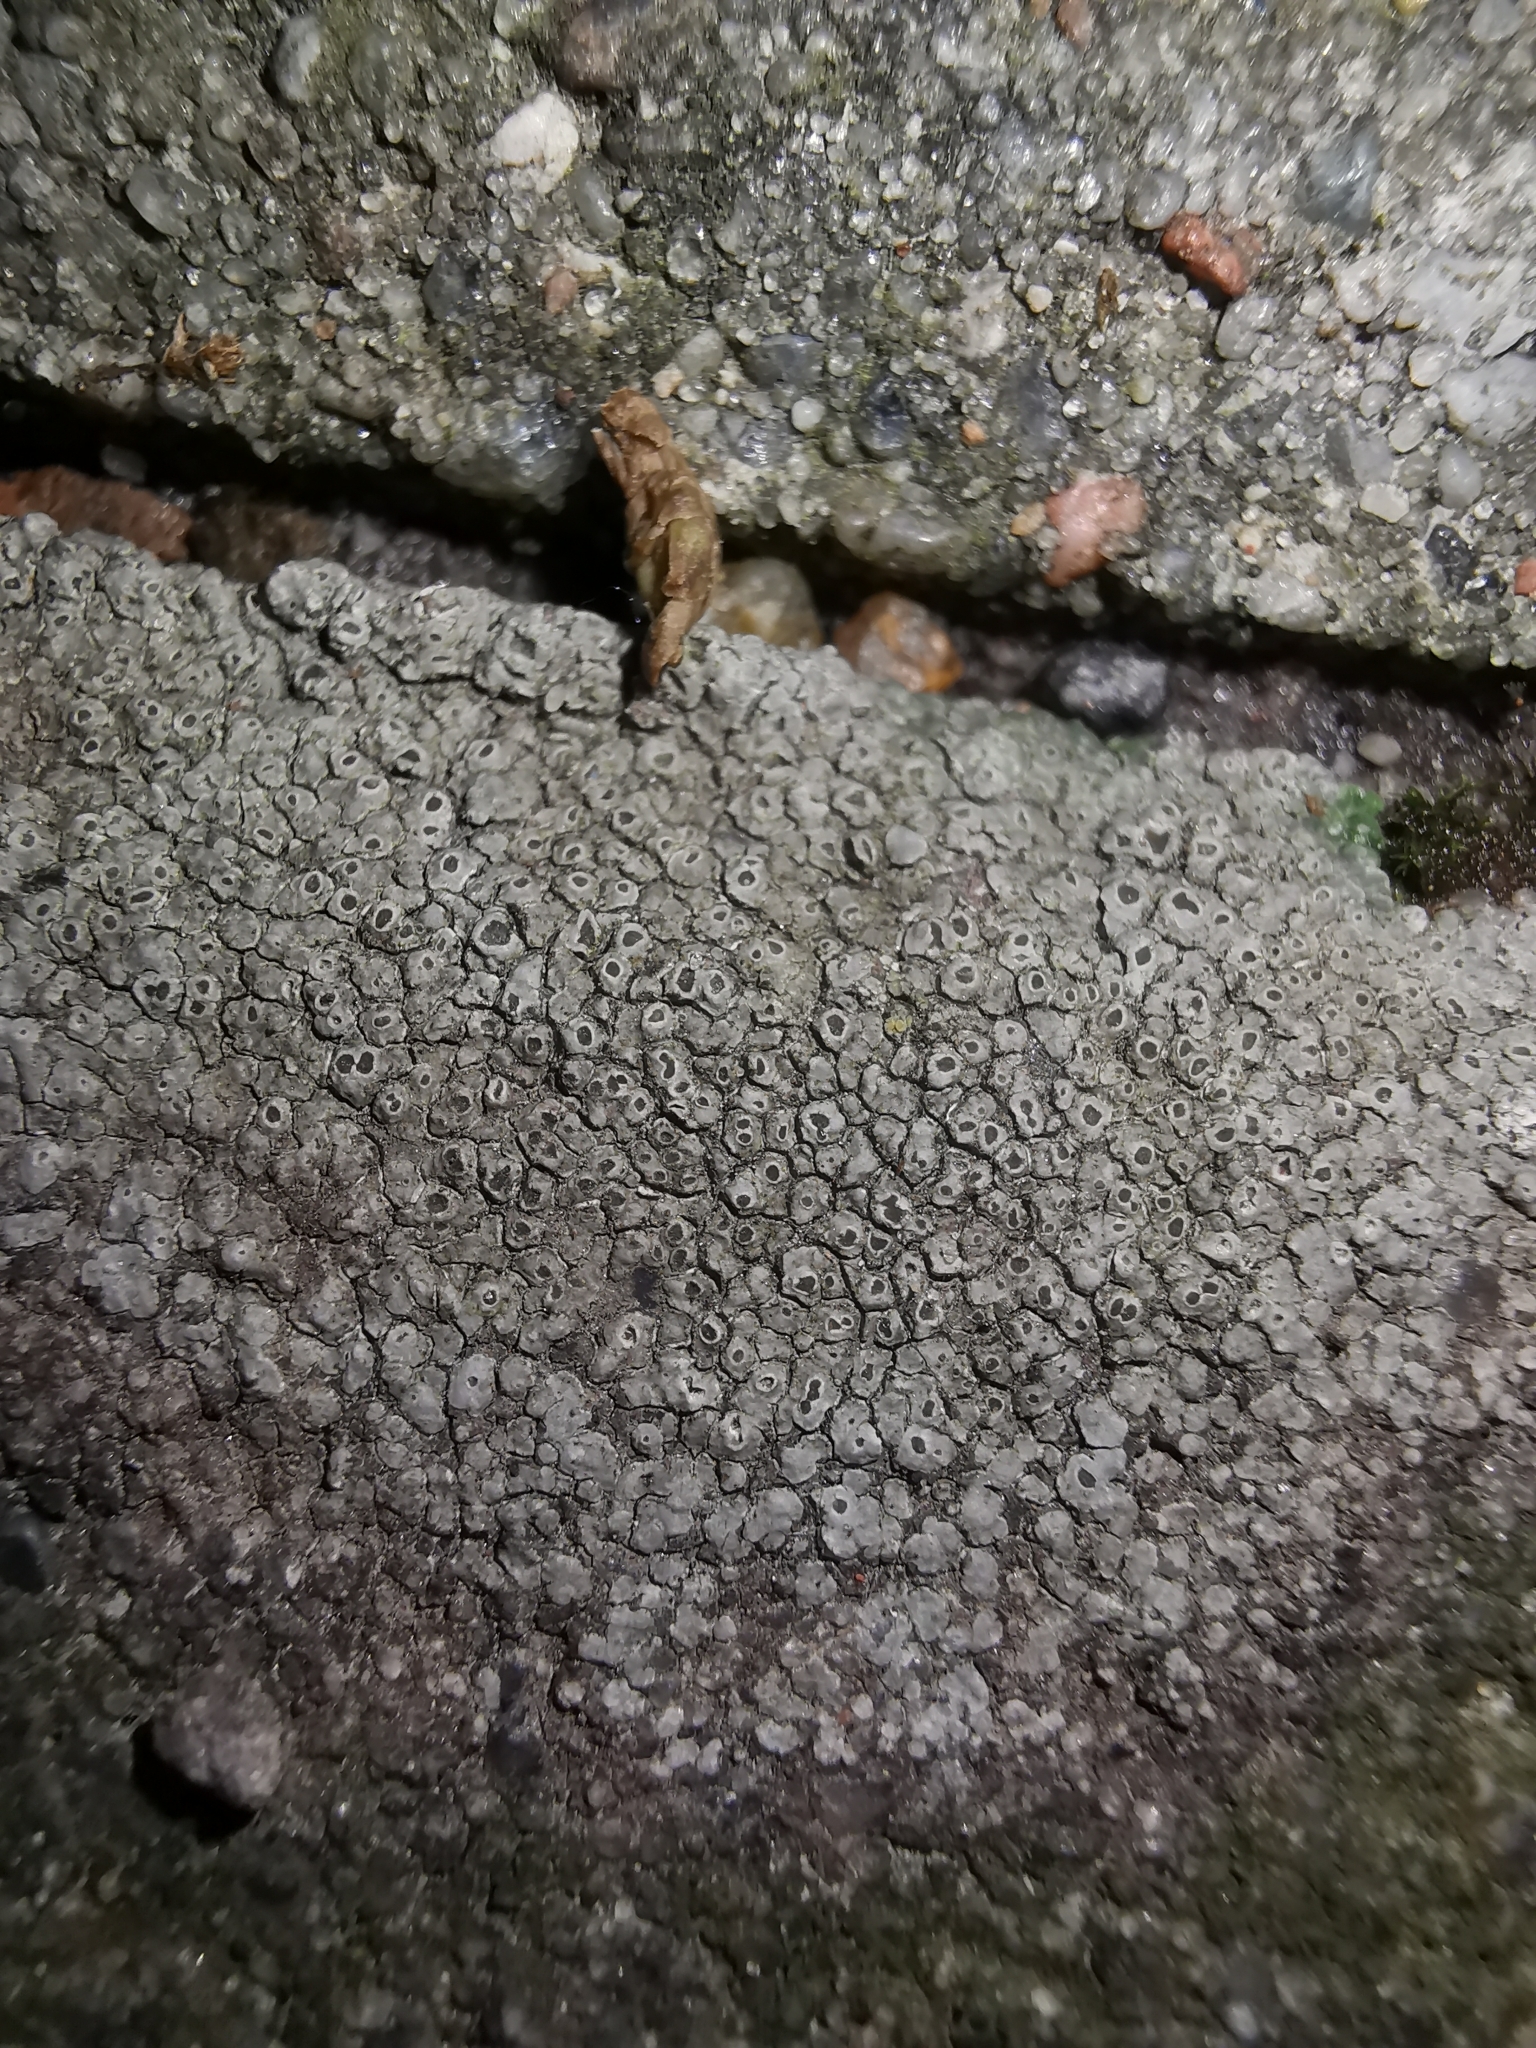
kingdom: Fungi
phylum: Ascomycota
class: Lecanoromycetes
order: Pertusariales
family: Megasporaceae
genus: Circinaria
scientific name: Circinaria contorta
